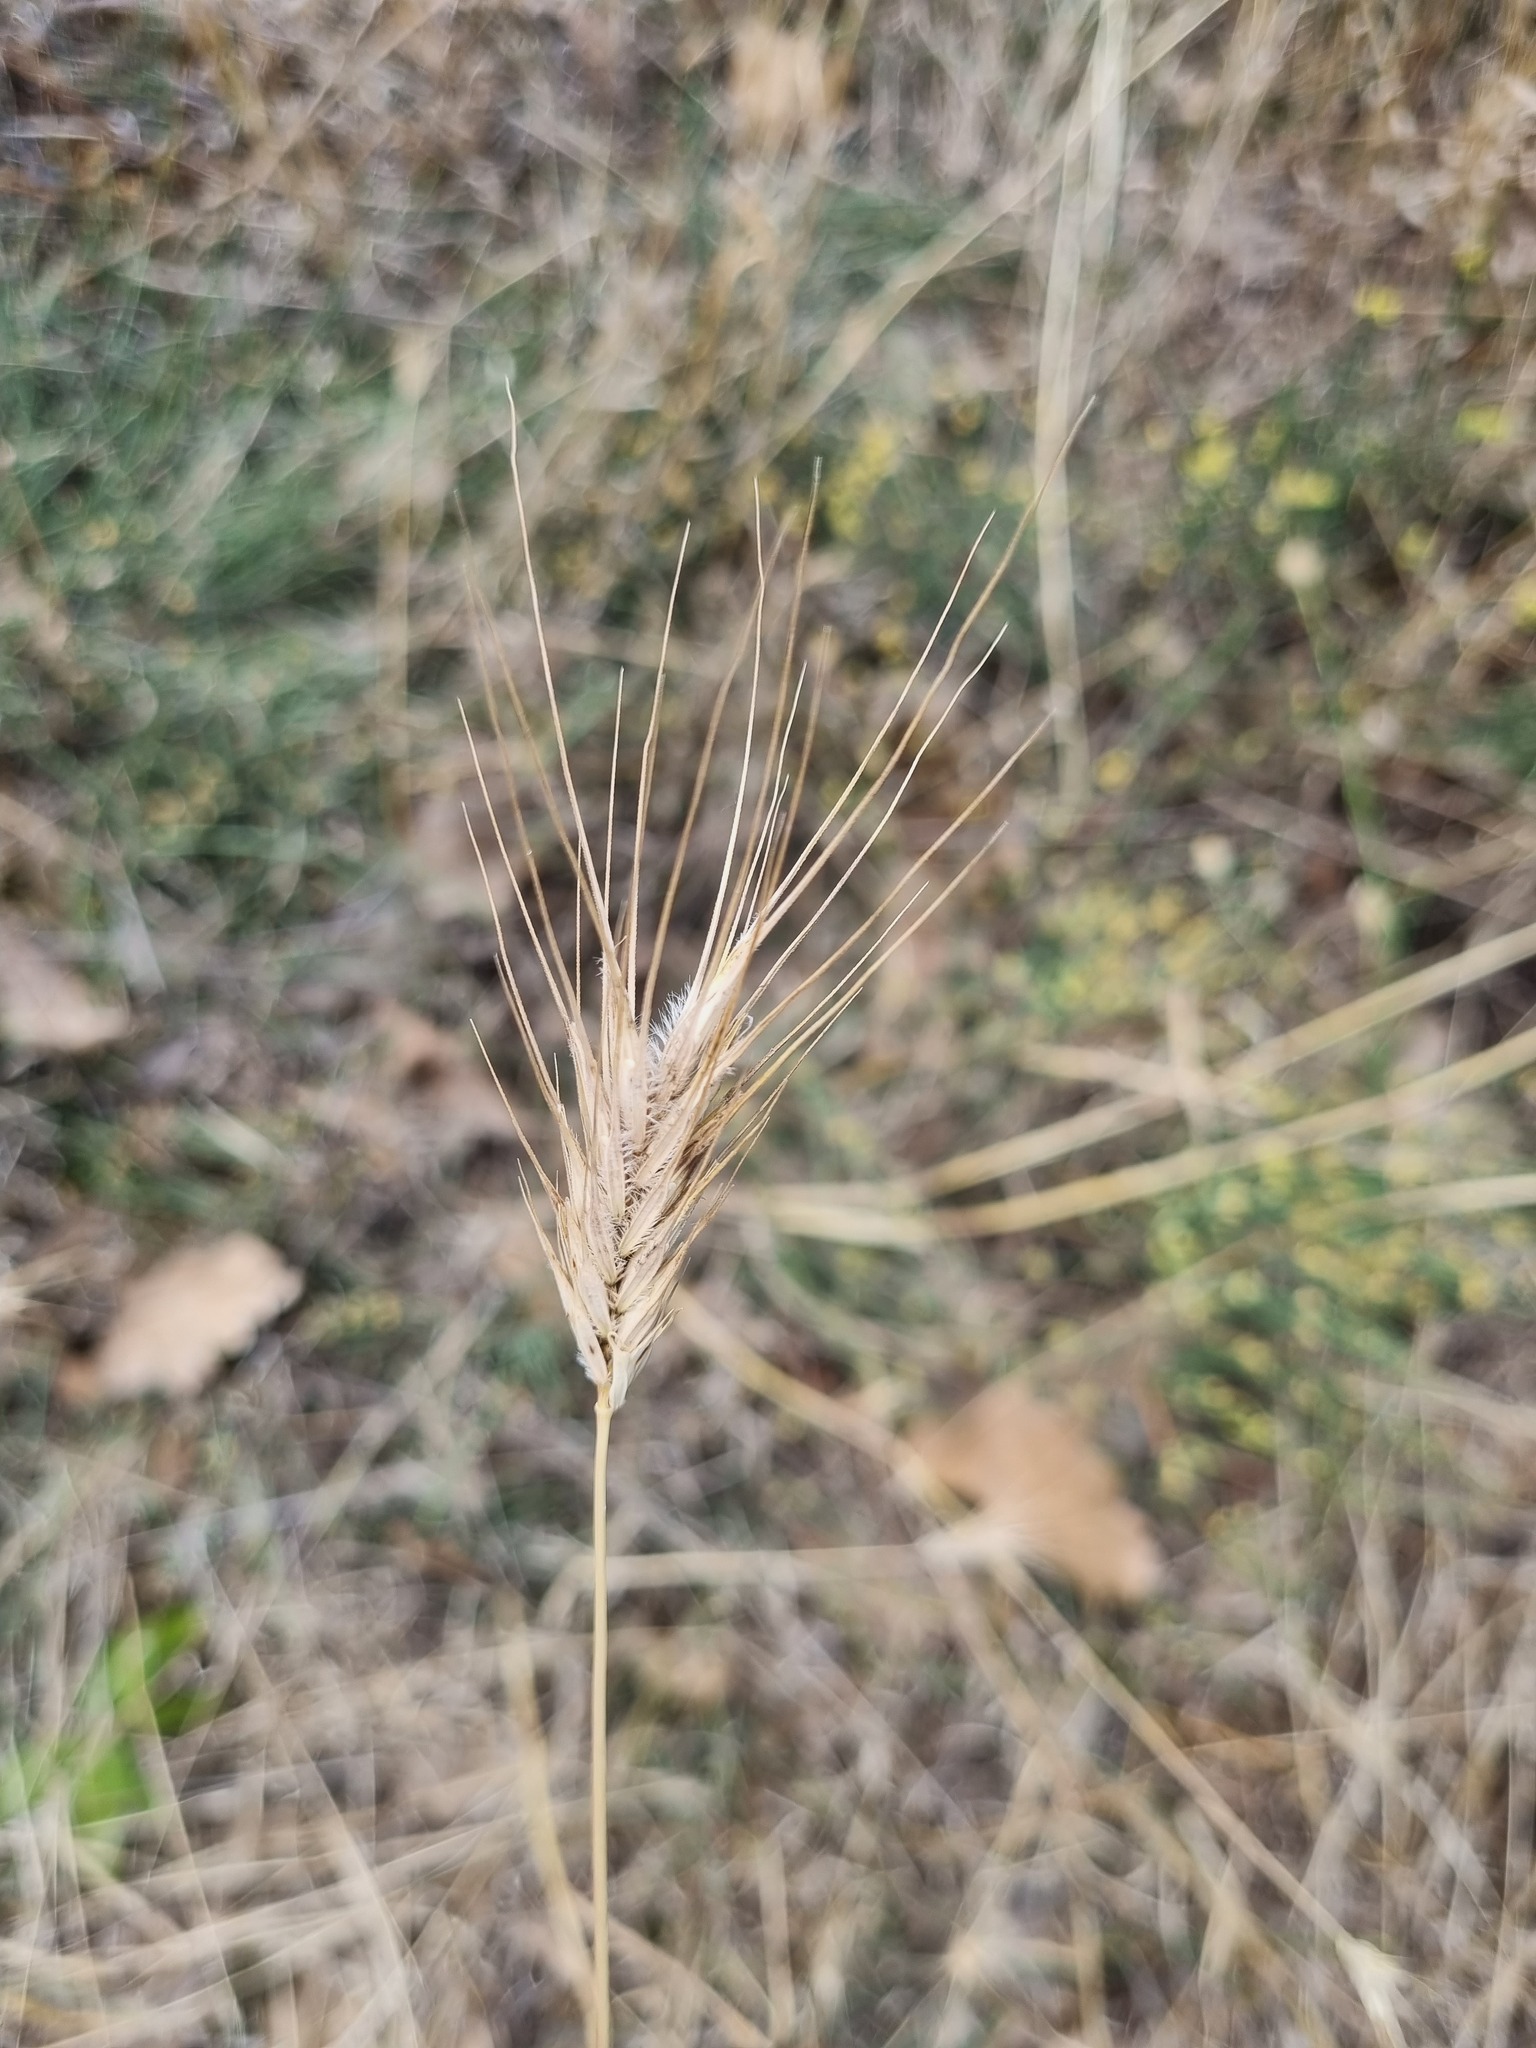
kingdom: Plantae
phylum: Tracheophyta
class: Liliopsida
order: Poales
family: Poaceae
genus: Dasypyrum
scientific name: Dasypyrum villosum
